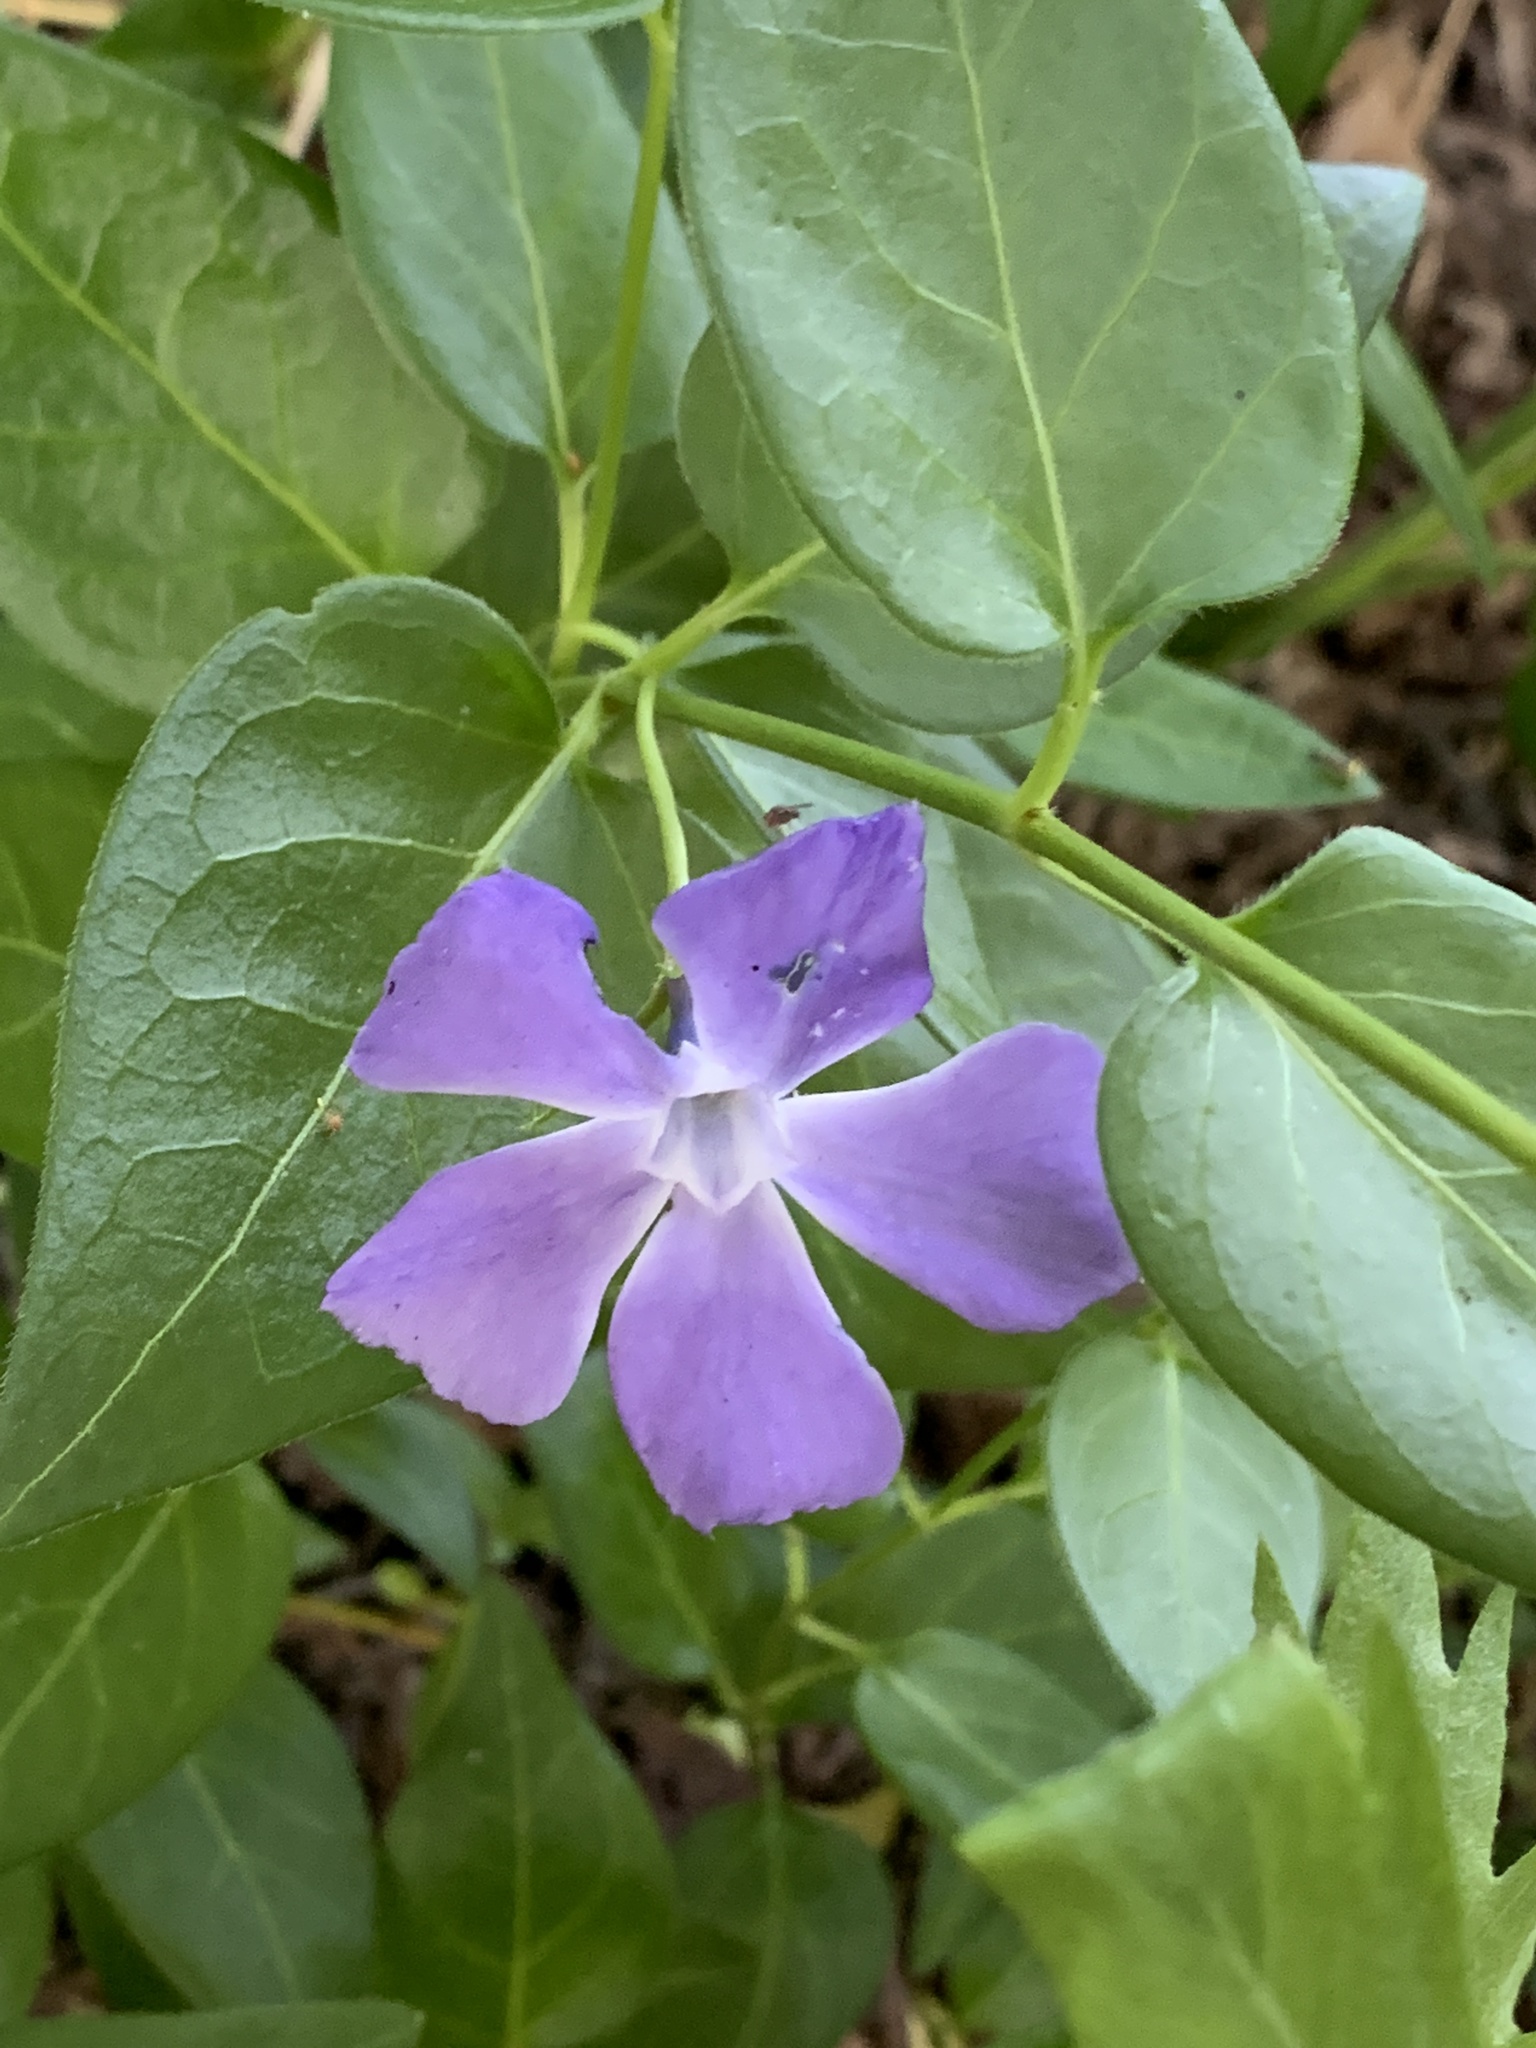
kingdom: Plantae
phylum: Tracheophyta
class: Magnoliopsida
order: Gentianales
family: Apocynaceae
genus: Vinca
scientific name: Vinca major
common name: Greater periwinkle
